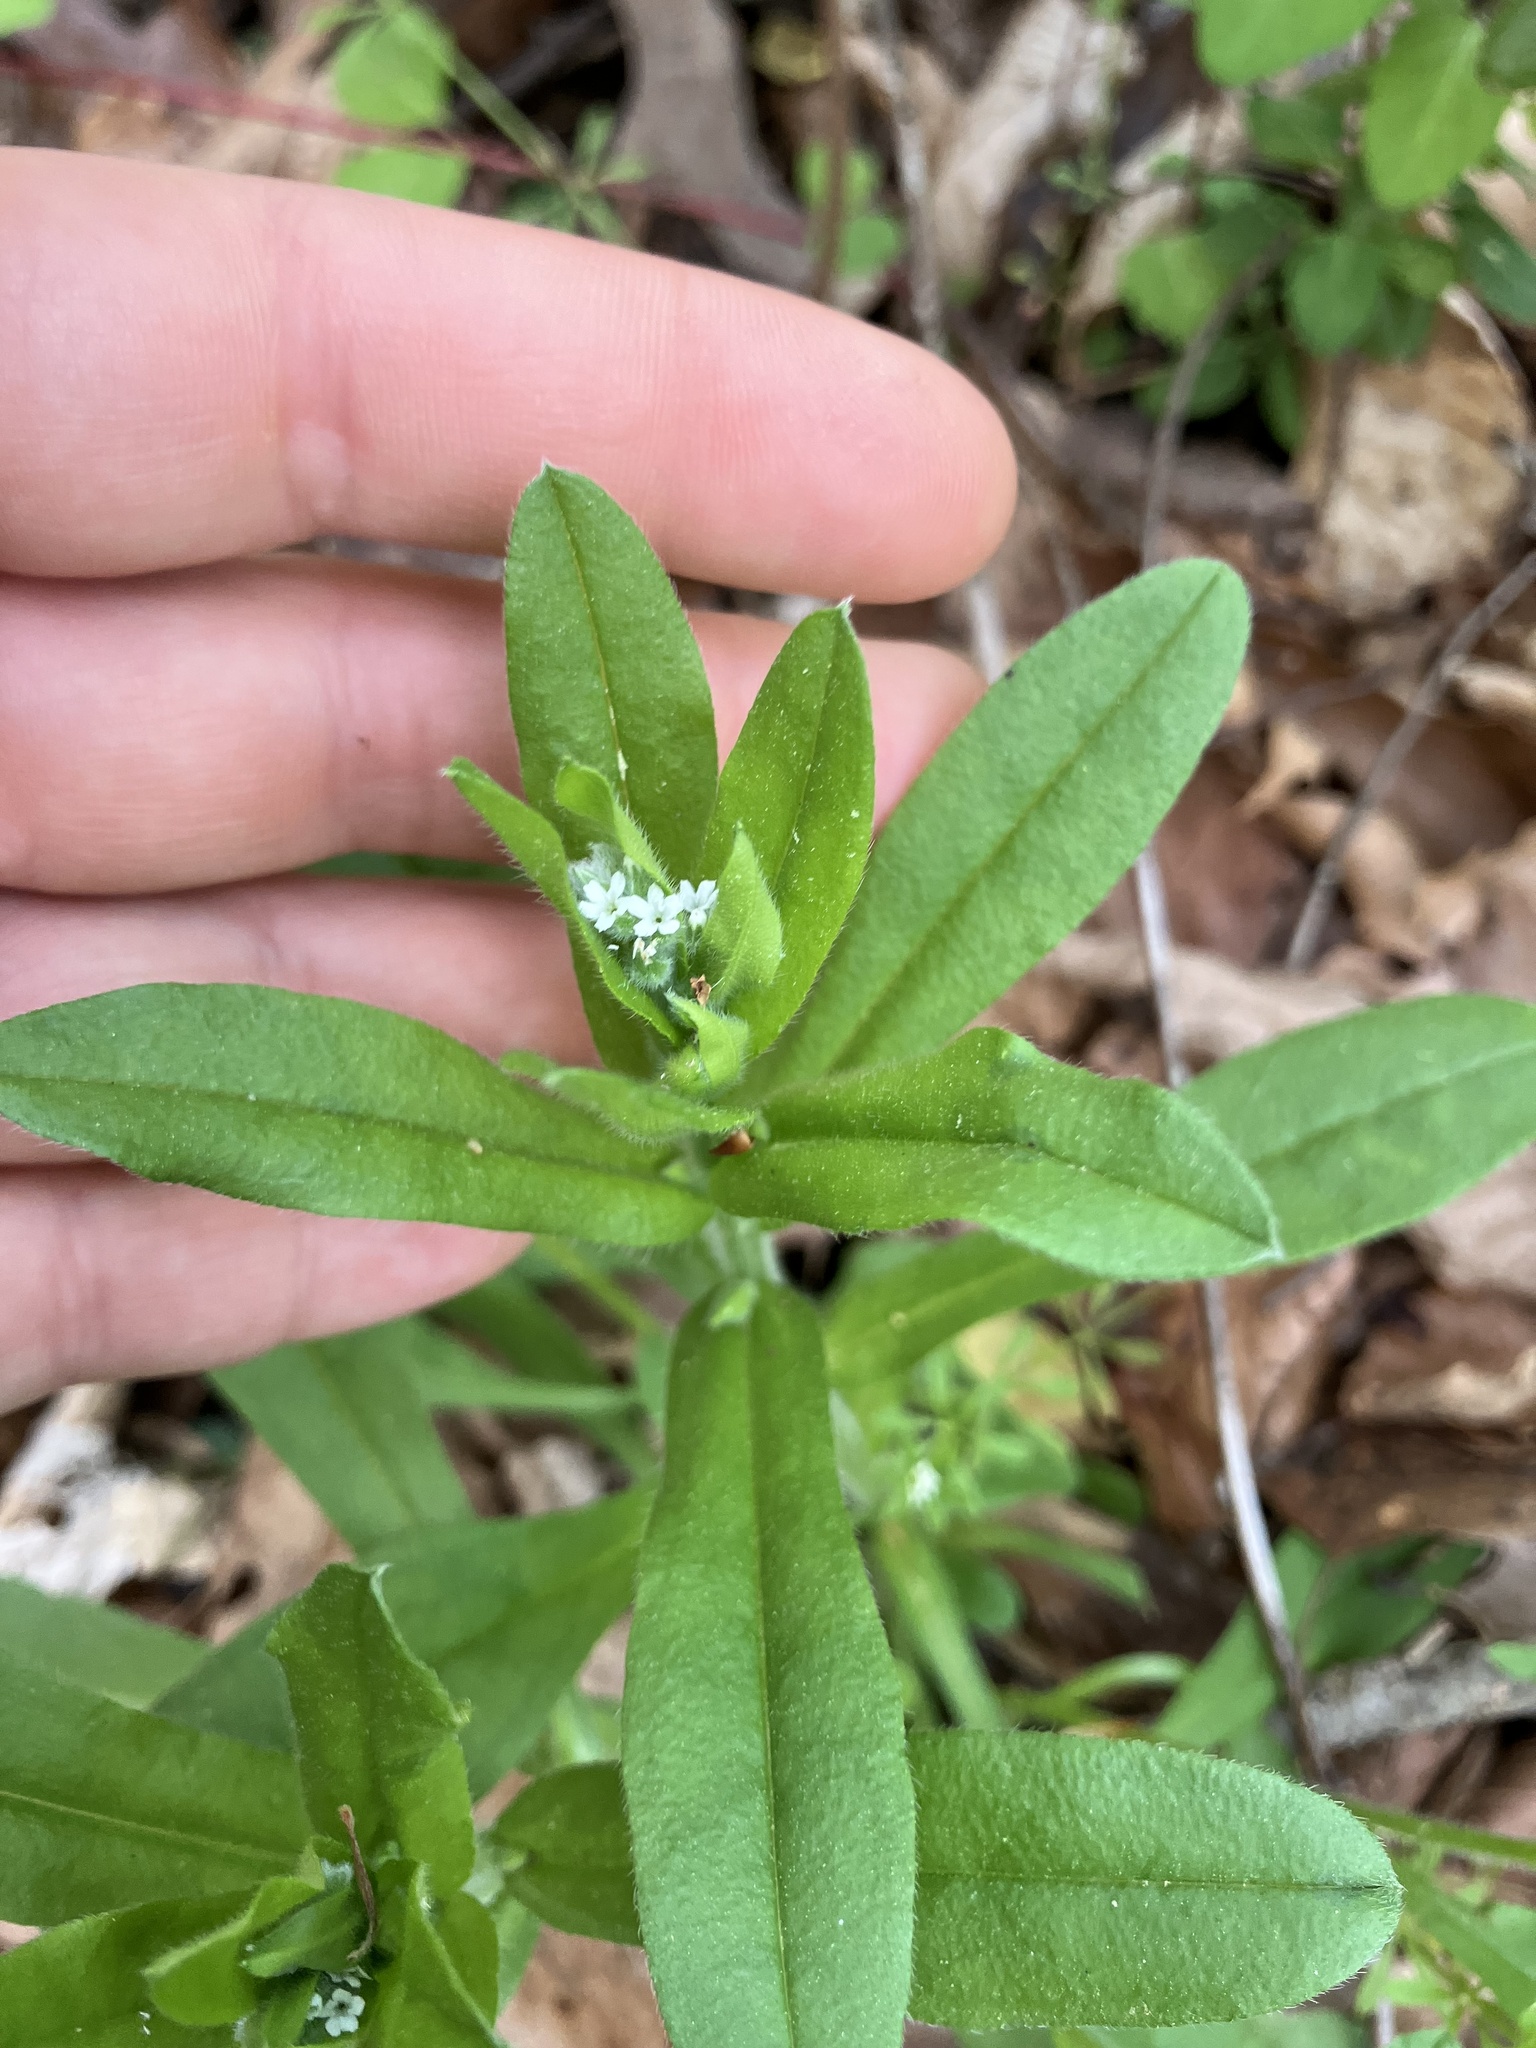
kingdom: Plantae
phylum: Tracheophyta
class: Magnoliopsida
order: Boraginales
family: Boraginaceae
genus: Myosotis
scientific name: Myosotis macrosperma
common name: Large-seed forget-me-not
